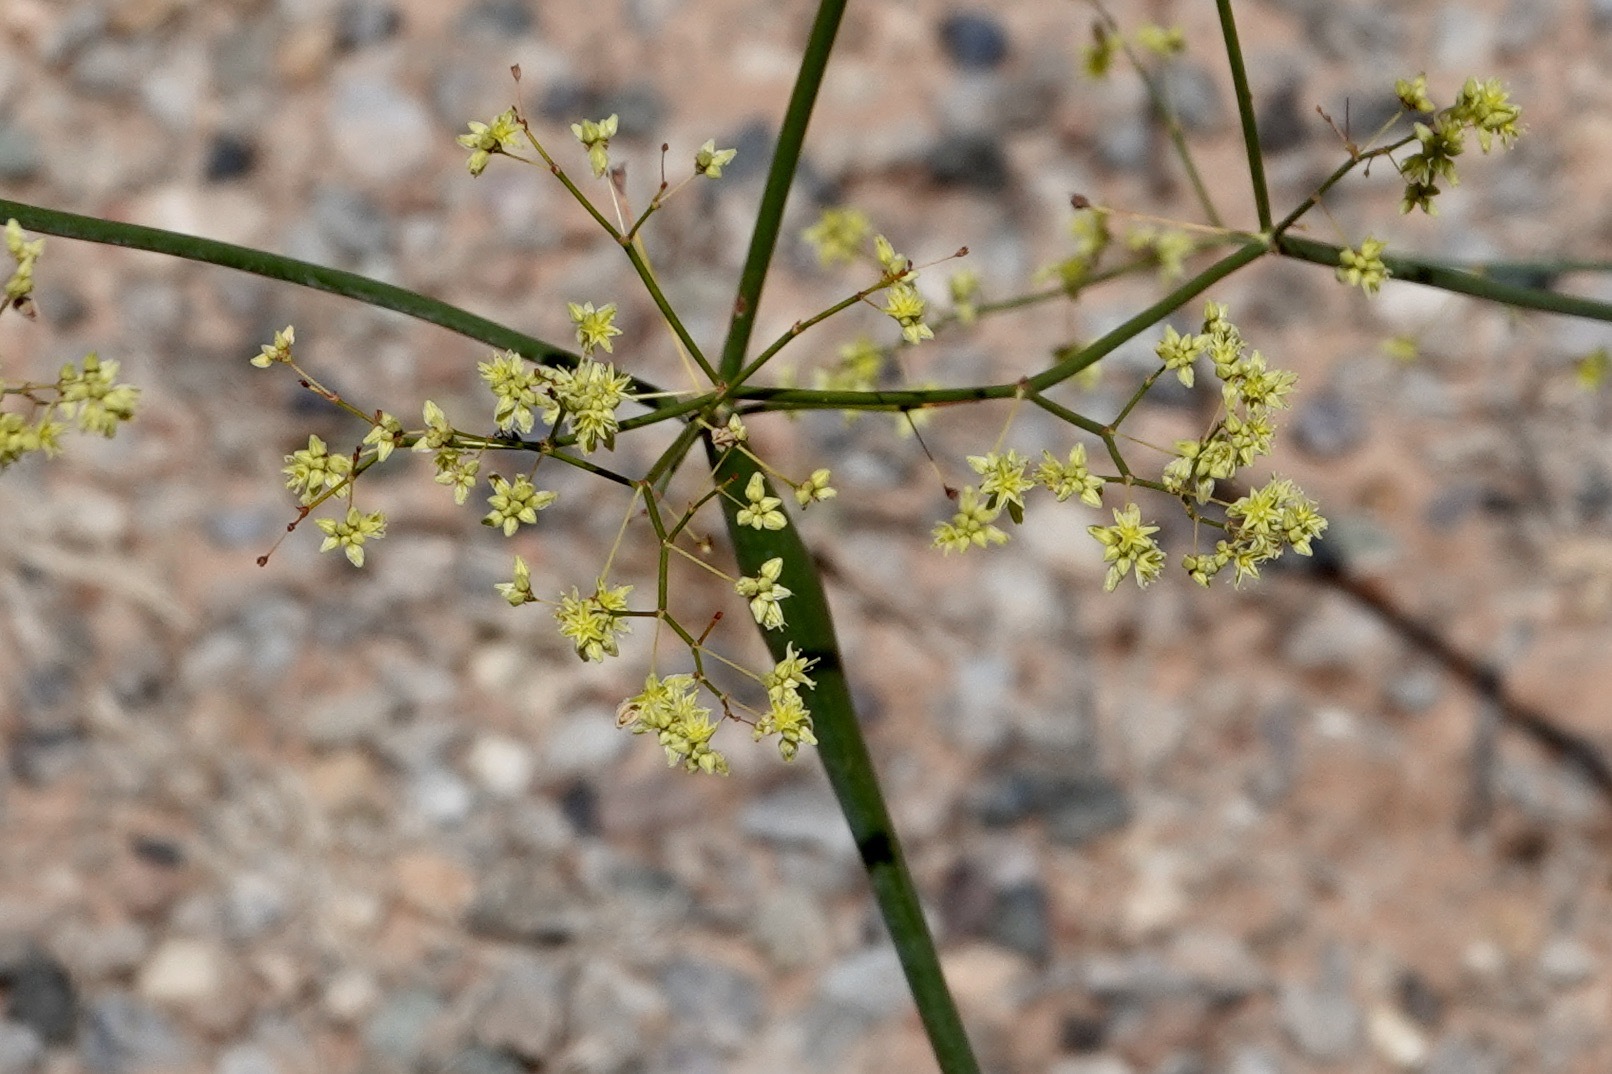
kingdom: Plantae
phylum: Tracheophyta
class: Magnoliopsida
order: Caryophyllales
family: Polygonaceae
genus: Eriogonum
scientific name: Eriogonum inflatum
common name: Desert trumpet
